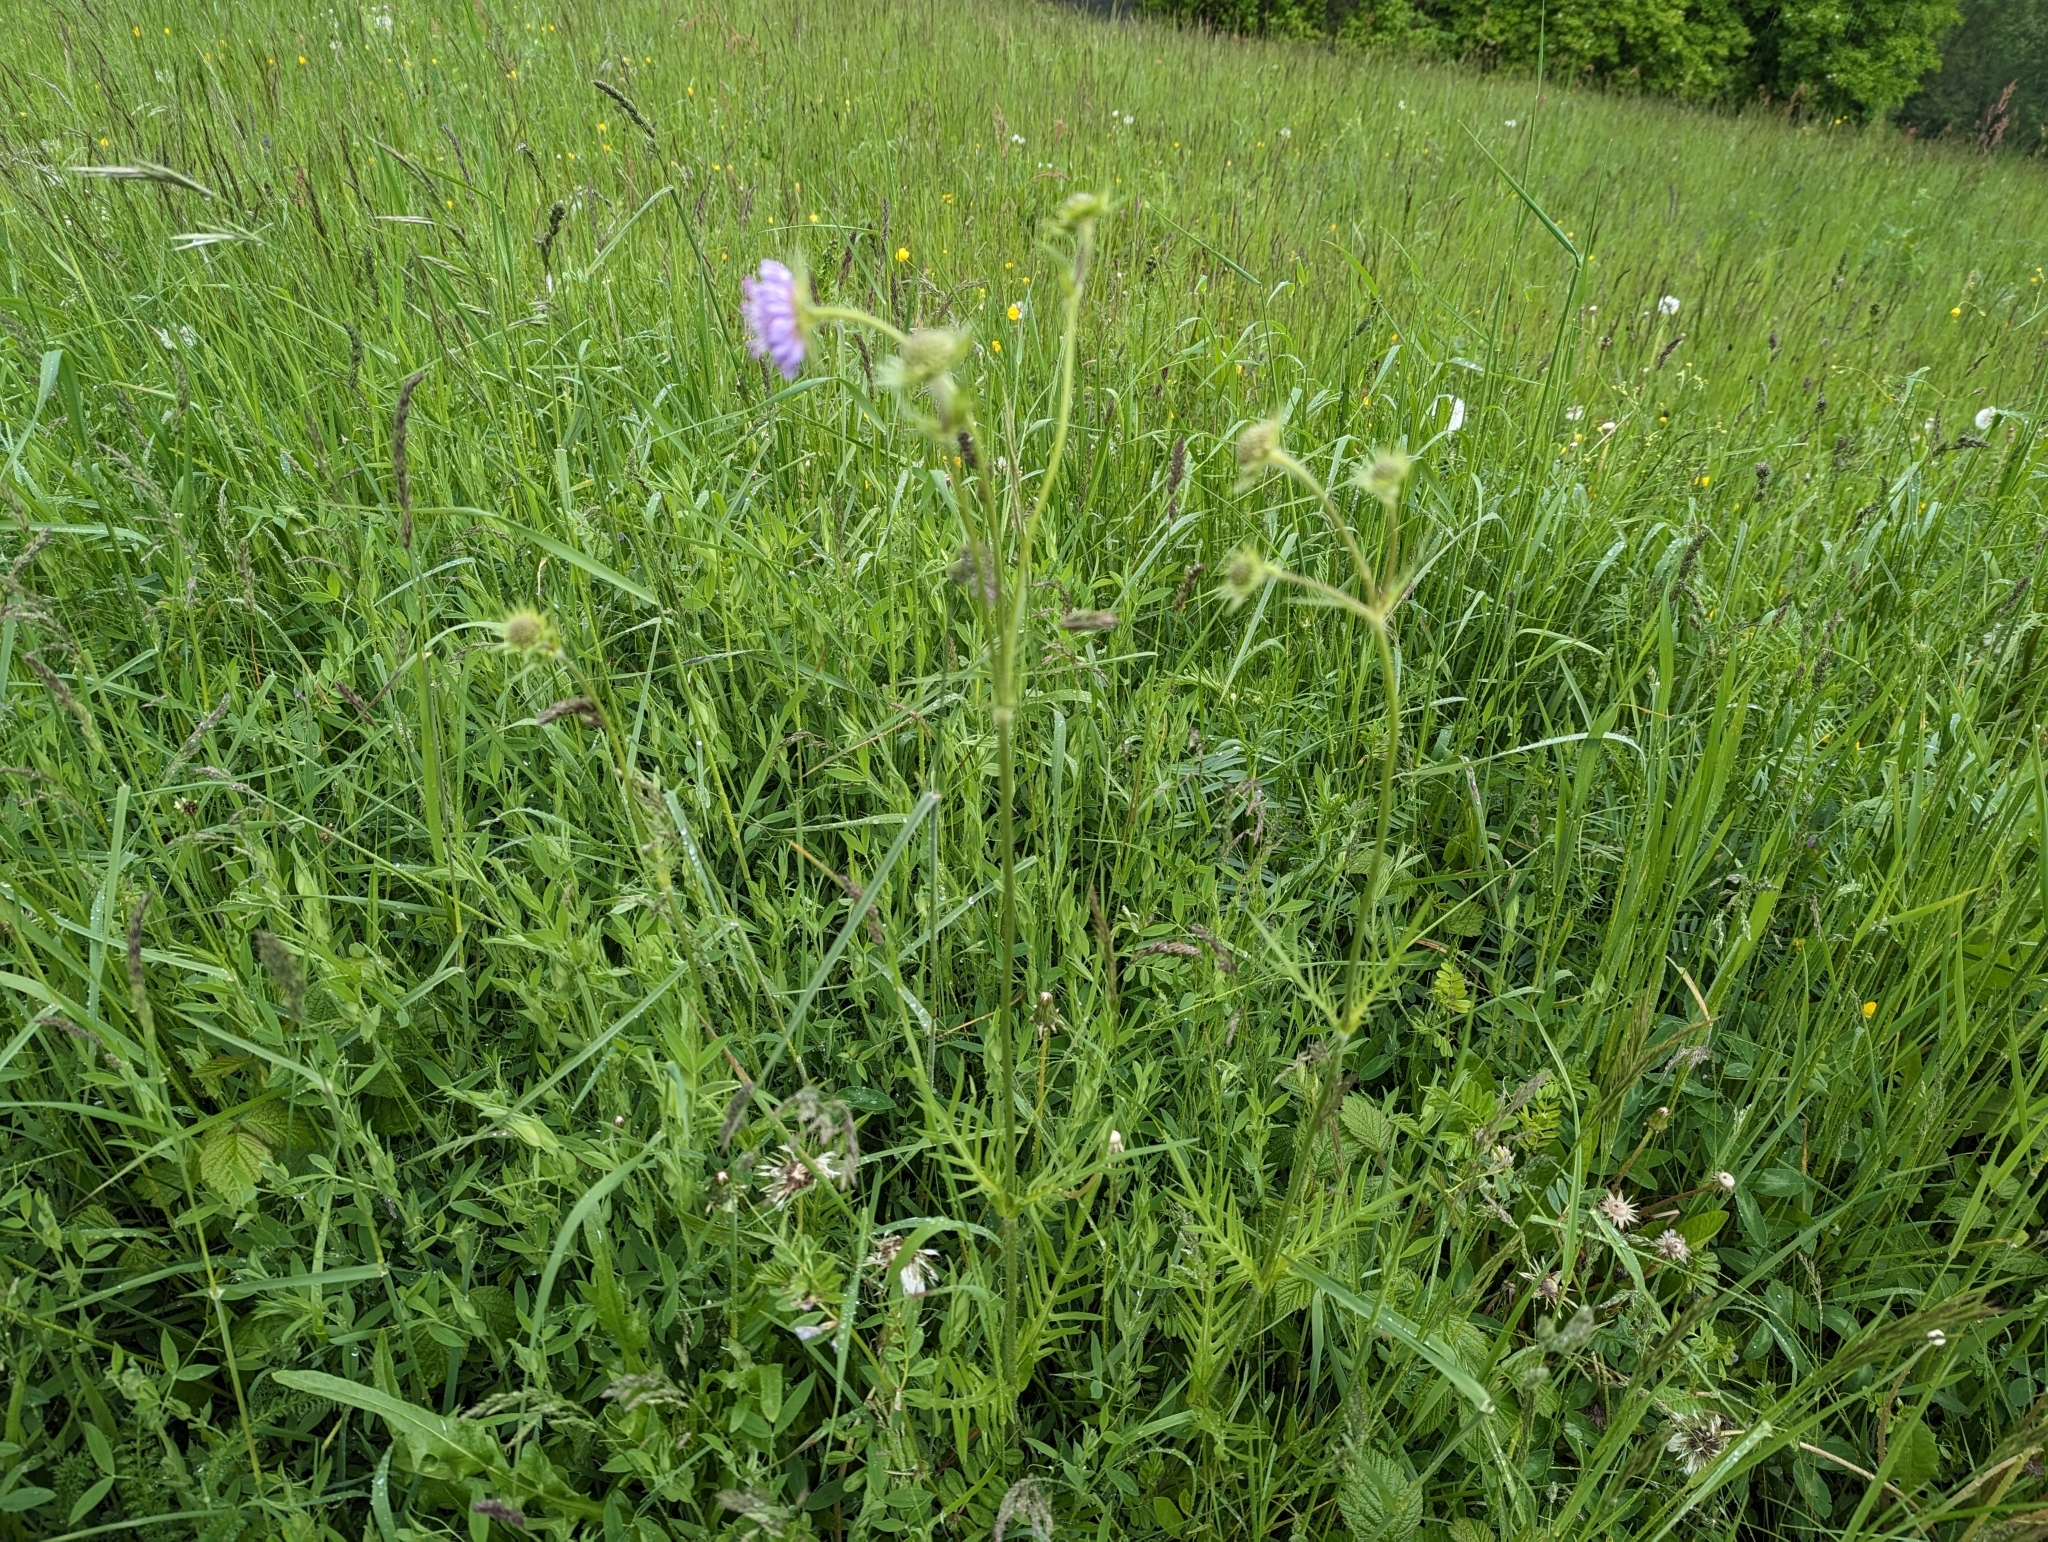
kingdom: Plantae
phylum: Tracheophyta
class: Magnoliopsida
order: Dipsacales
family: Caprifoliaceae
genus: Knautia
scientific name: Knautia arvensis
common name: Field scabiosa
